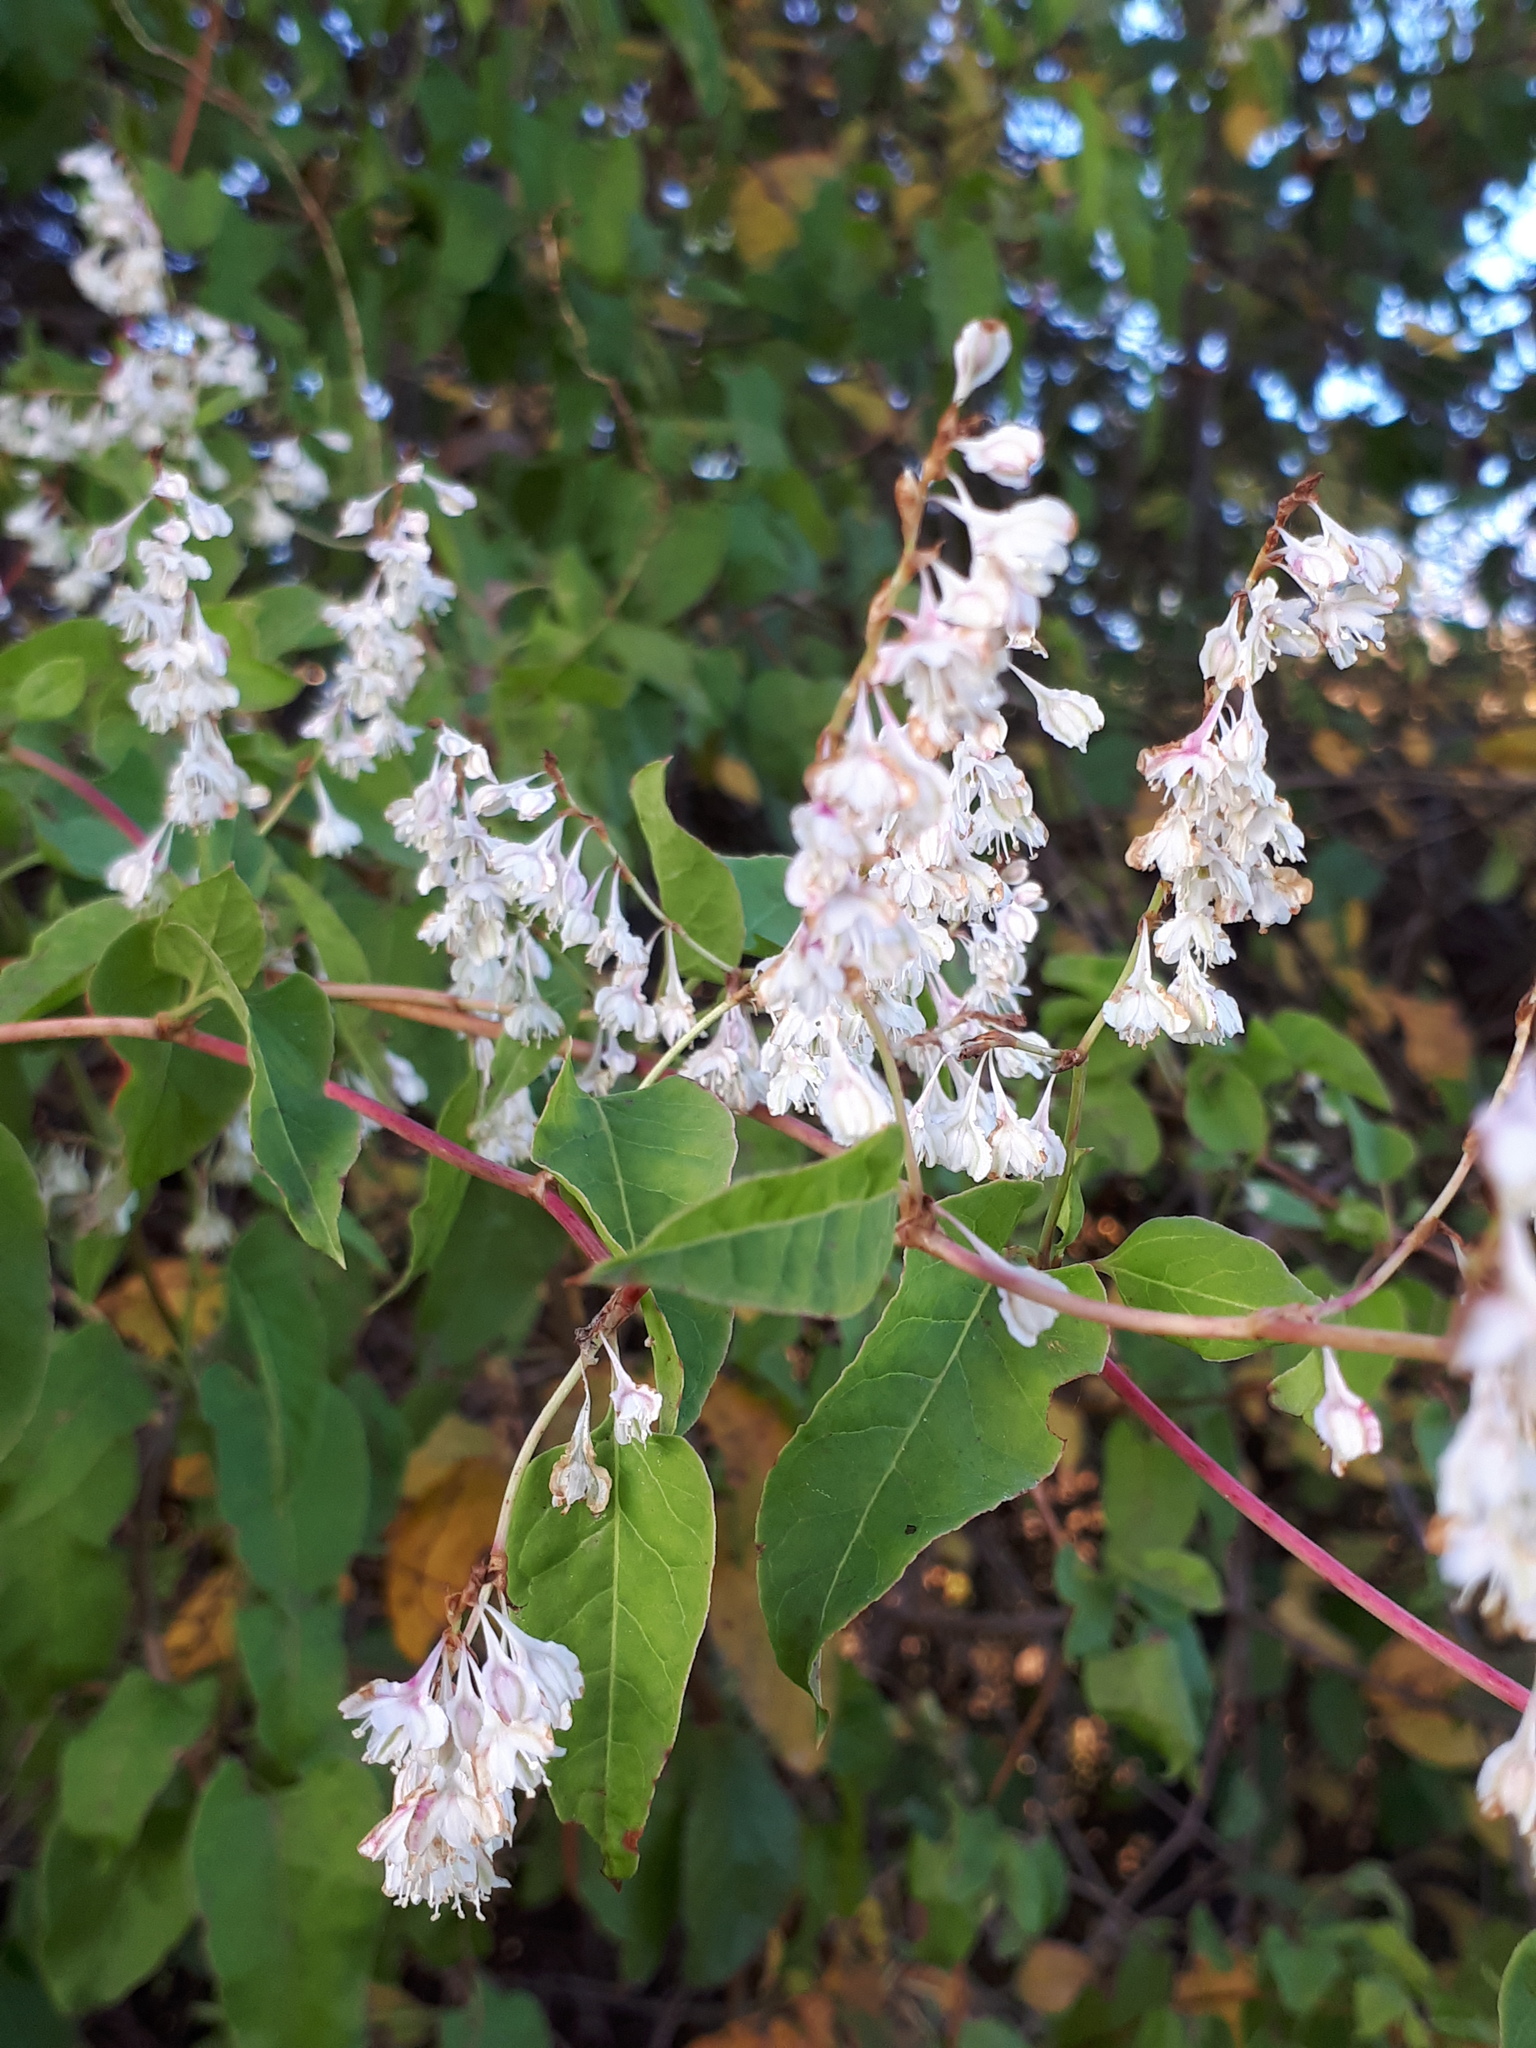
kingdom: Plantae
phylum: Tracheophyta
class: Magnoliopsida
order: Caryophyllales
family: Polygonaceae
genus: Fallopia
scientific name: Fallopia baldschuanica
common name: Russian-vine
